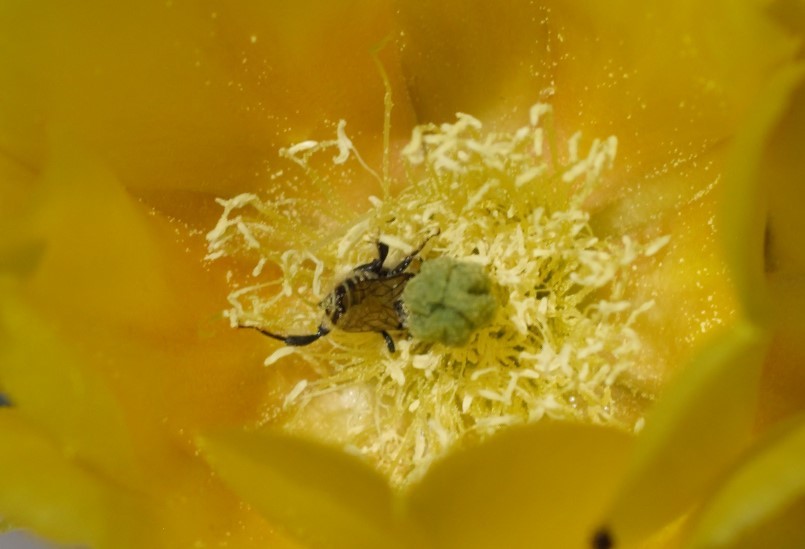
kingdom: Animalia
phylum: Arthropoda
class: Insecta
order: Hymenoptera
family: Megachilidae
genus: Lithurgopsis
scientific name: Lithurgopsis apicalis
